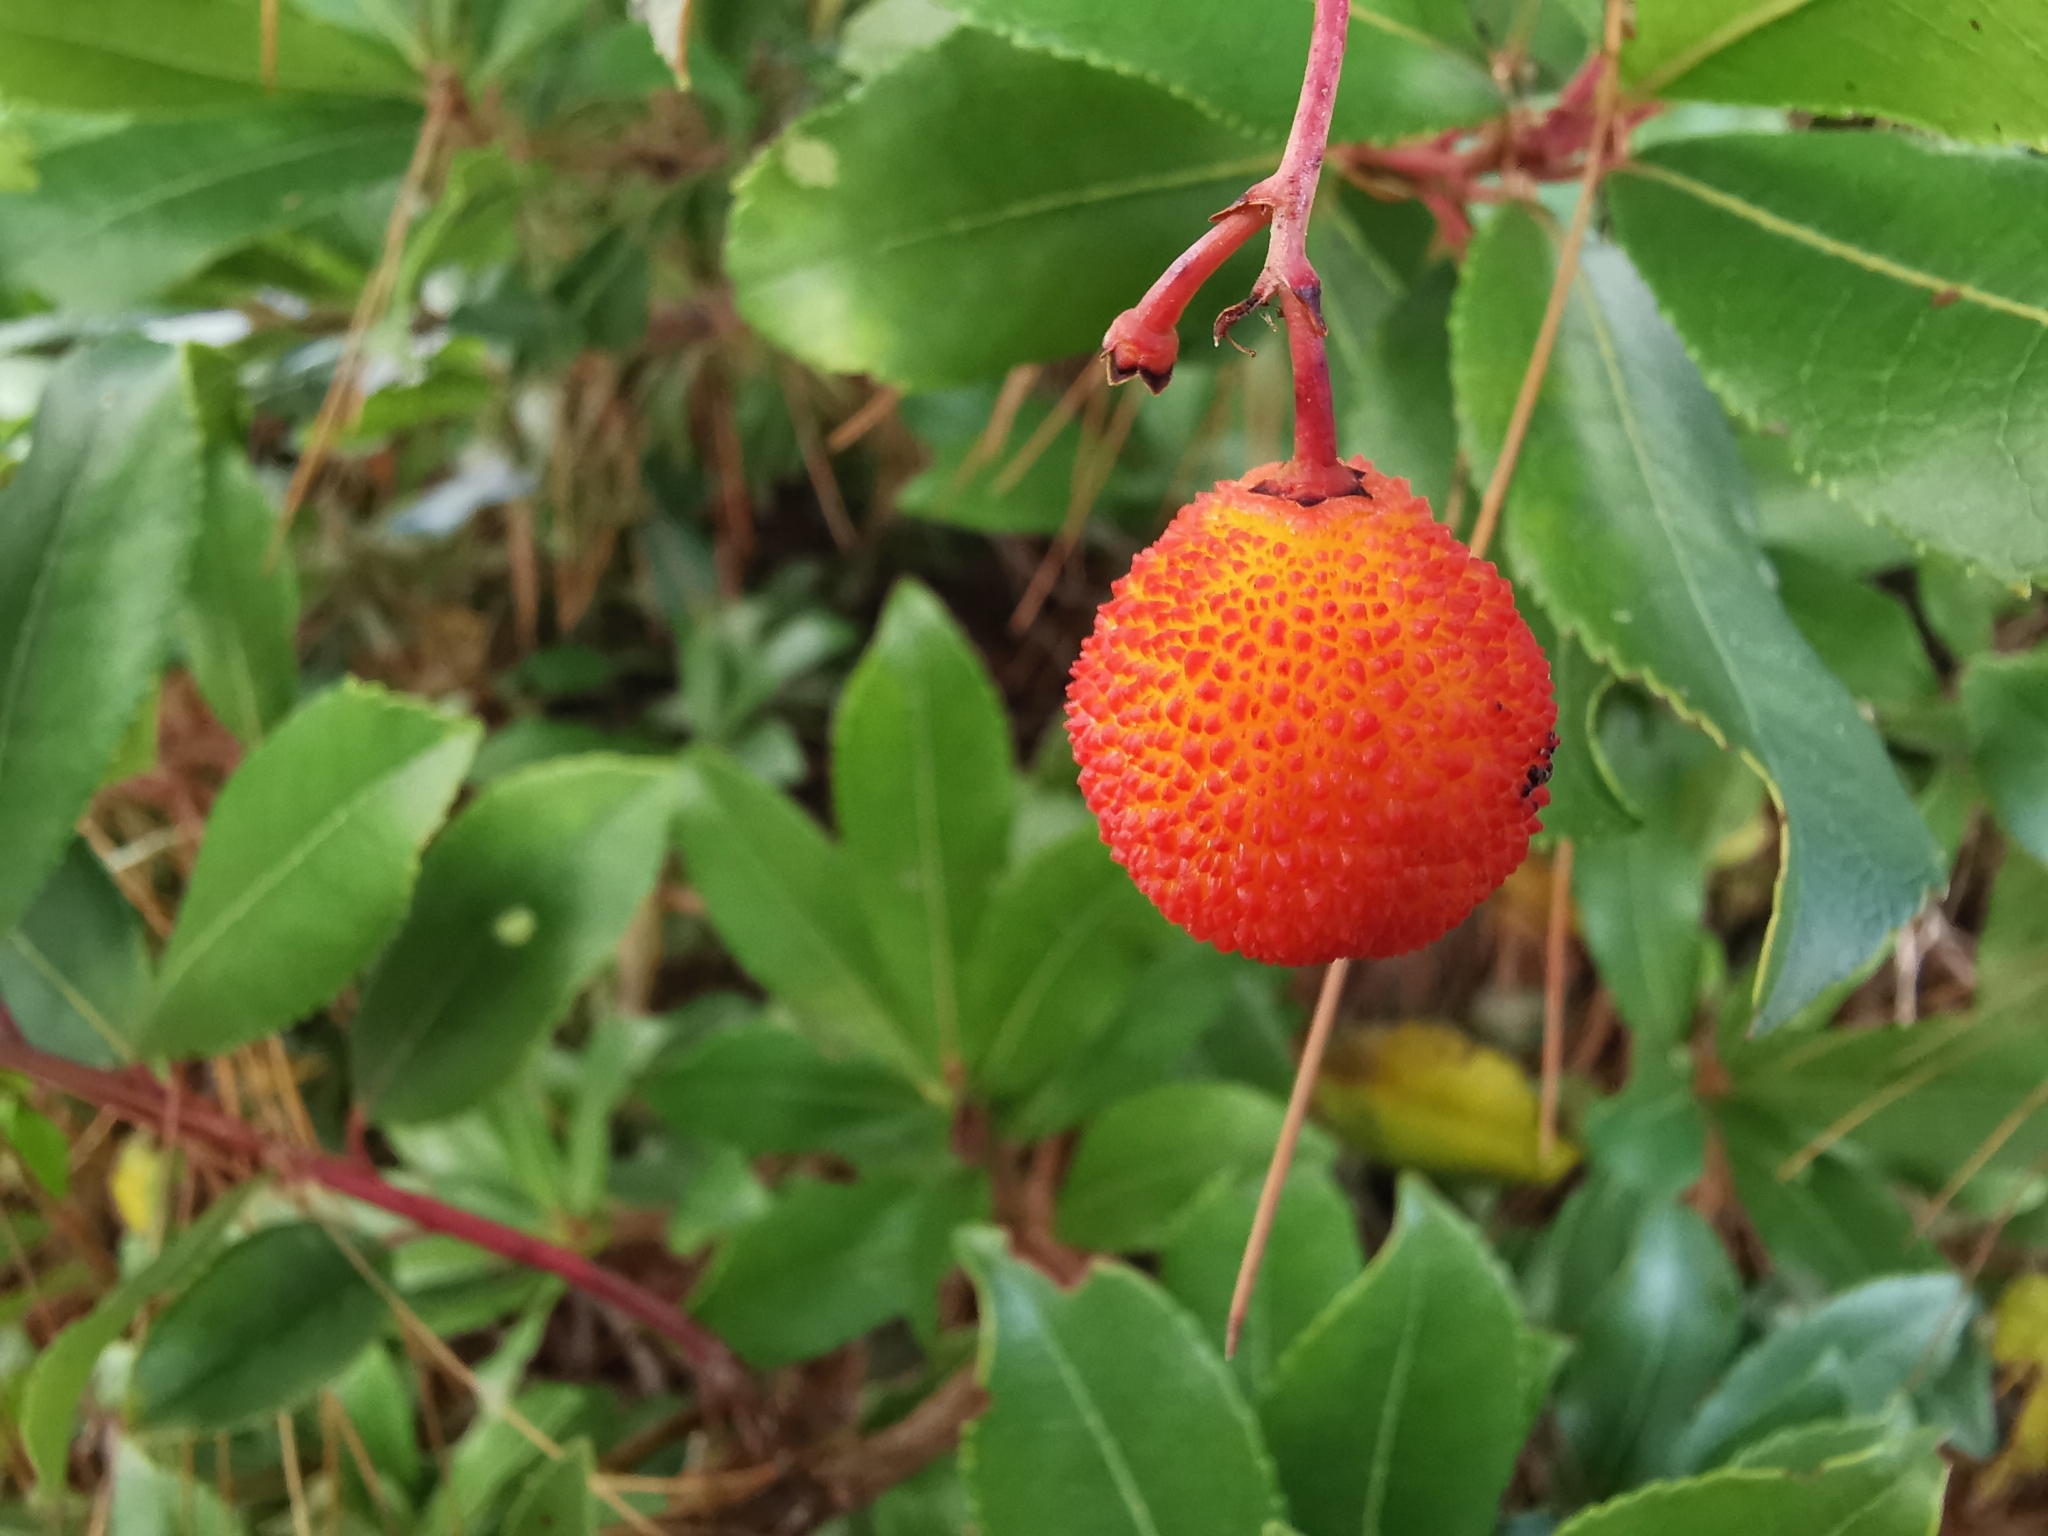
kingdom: Plantae
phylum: Tracheophyta
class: Magnoliopsida
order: Ericales
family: Ericaceae
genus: Arbutus
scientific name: Arbutus unedo
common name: Strawberry-tree
